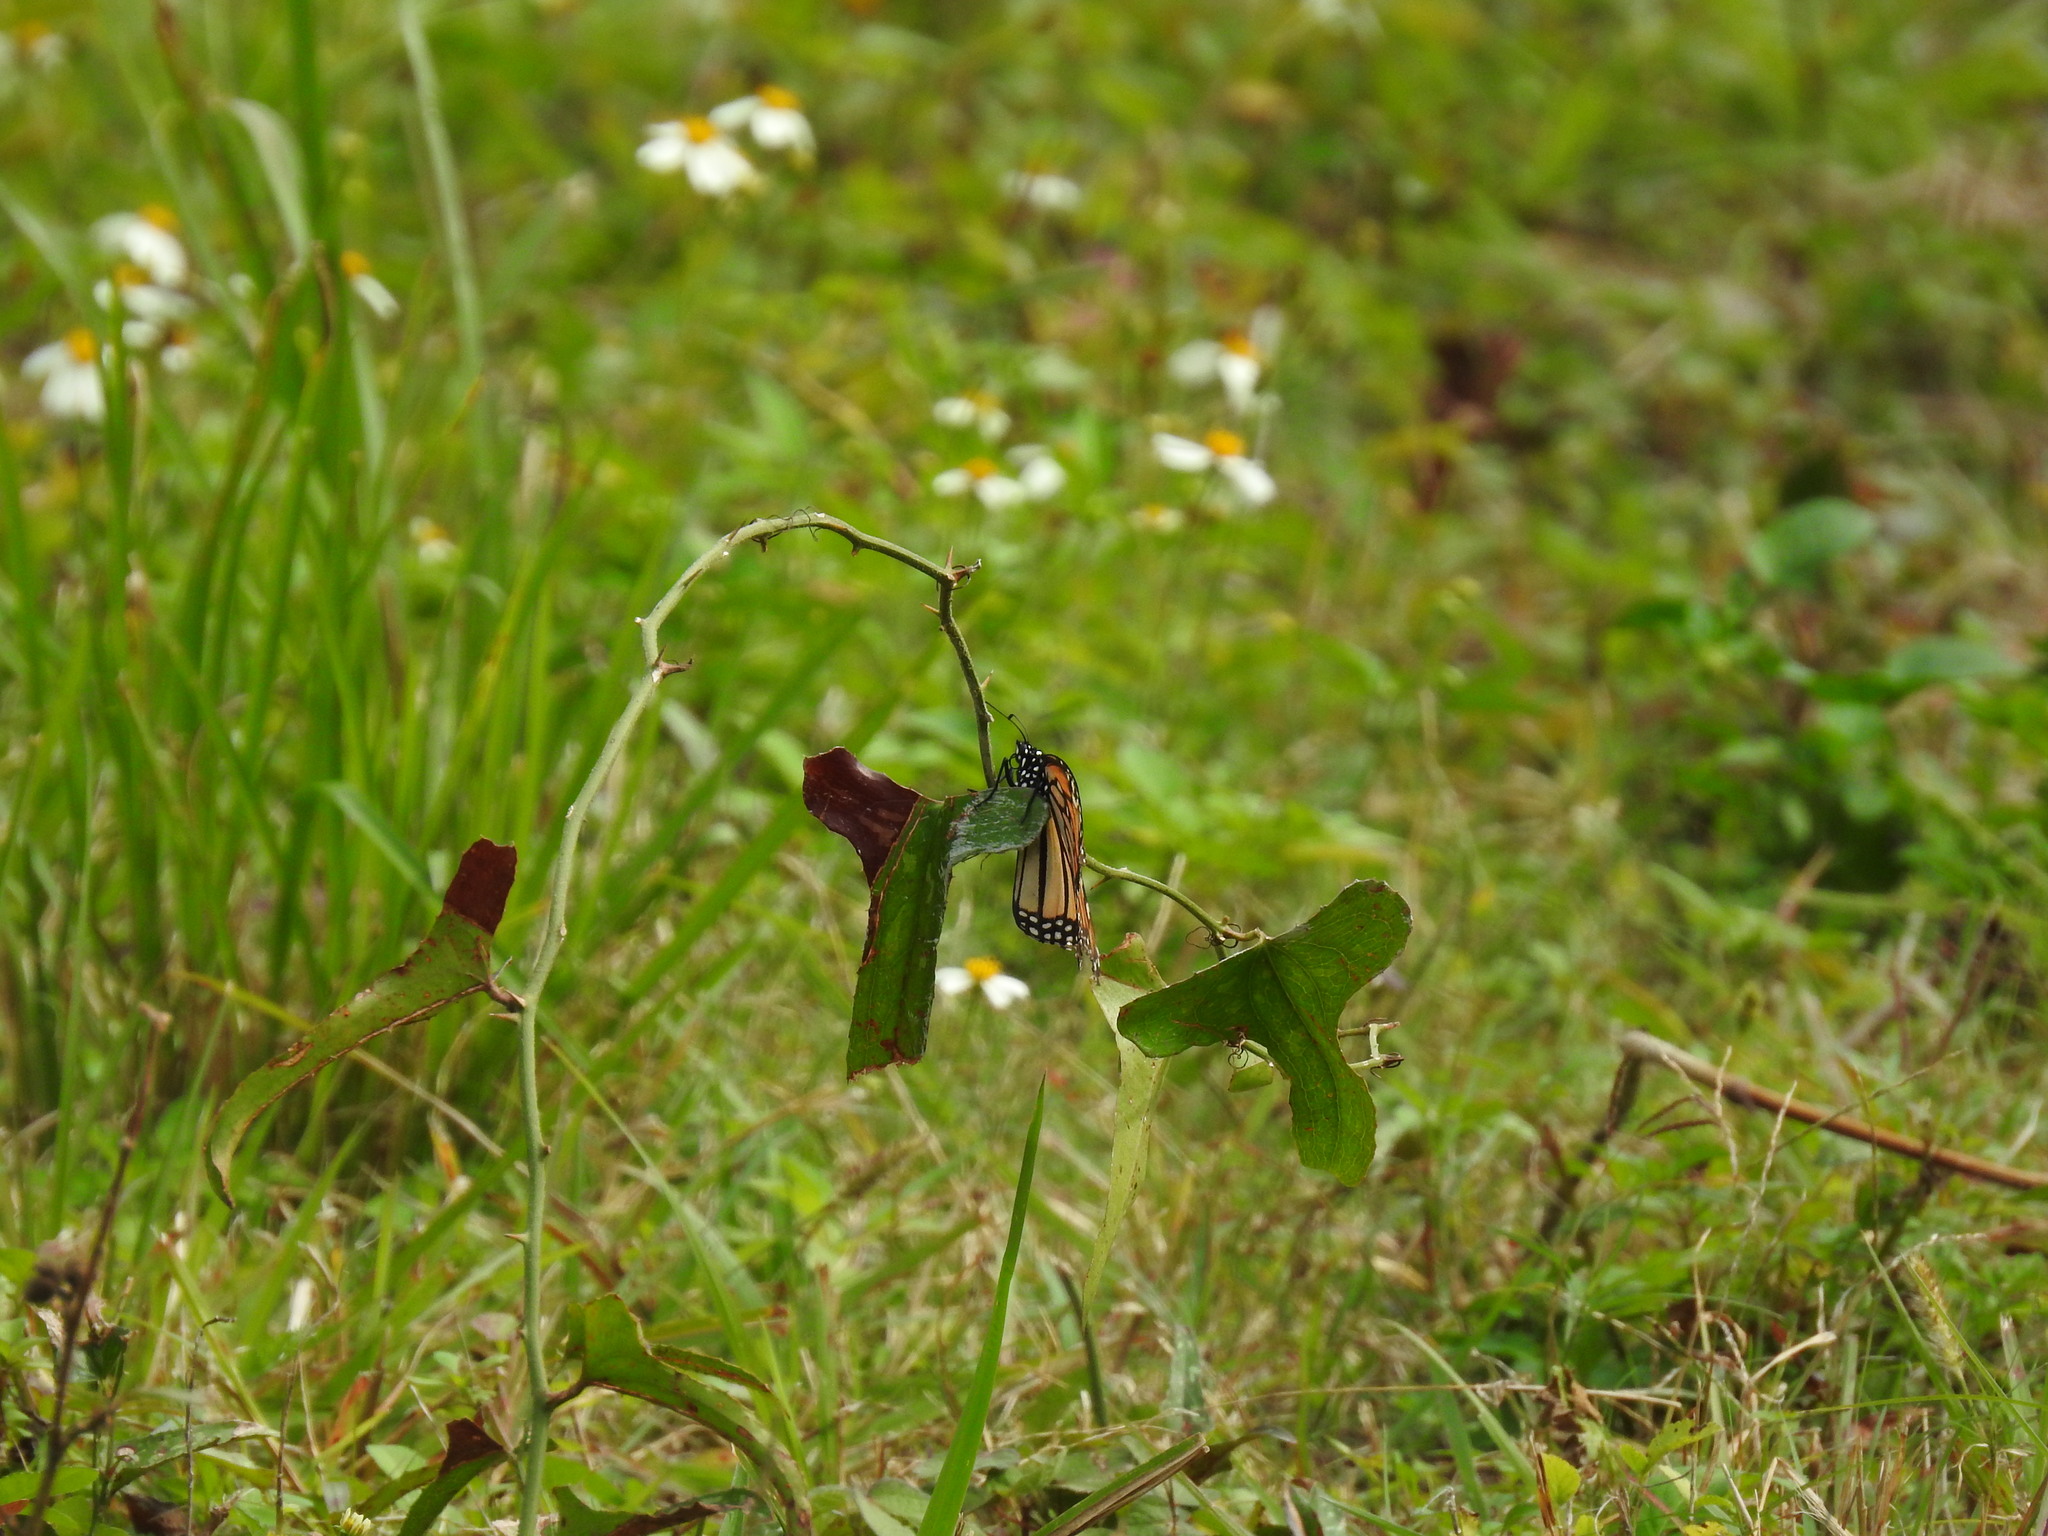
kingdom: Animalia
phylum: Arthropoda
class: Insecta
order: Lepidoptera
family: Nymphalidae
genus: Danaus
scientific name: Danaus plexippus
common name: Monarch
